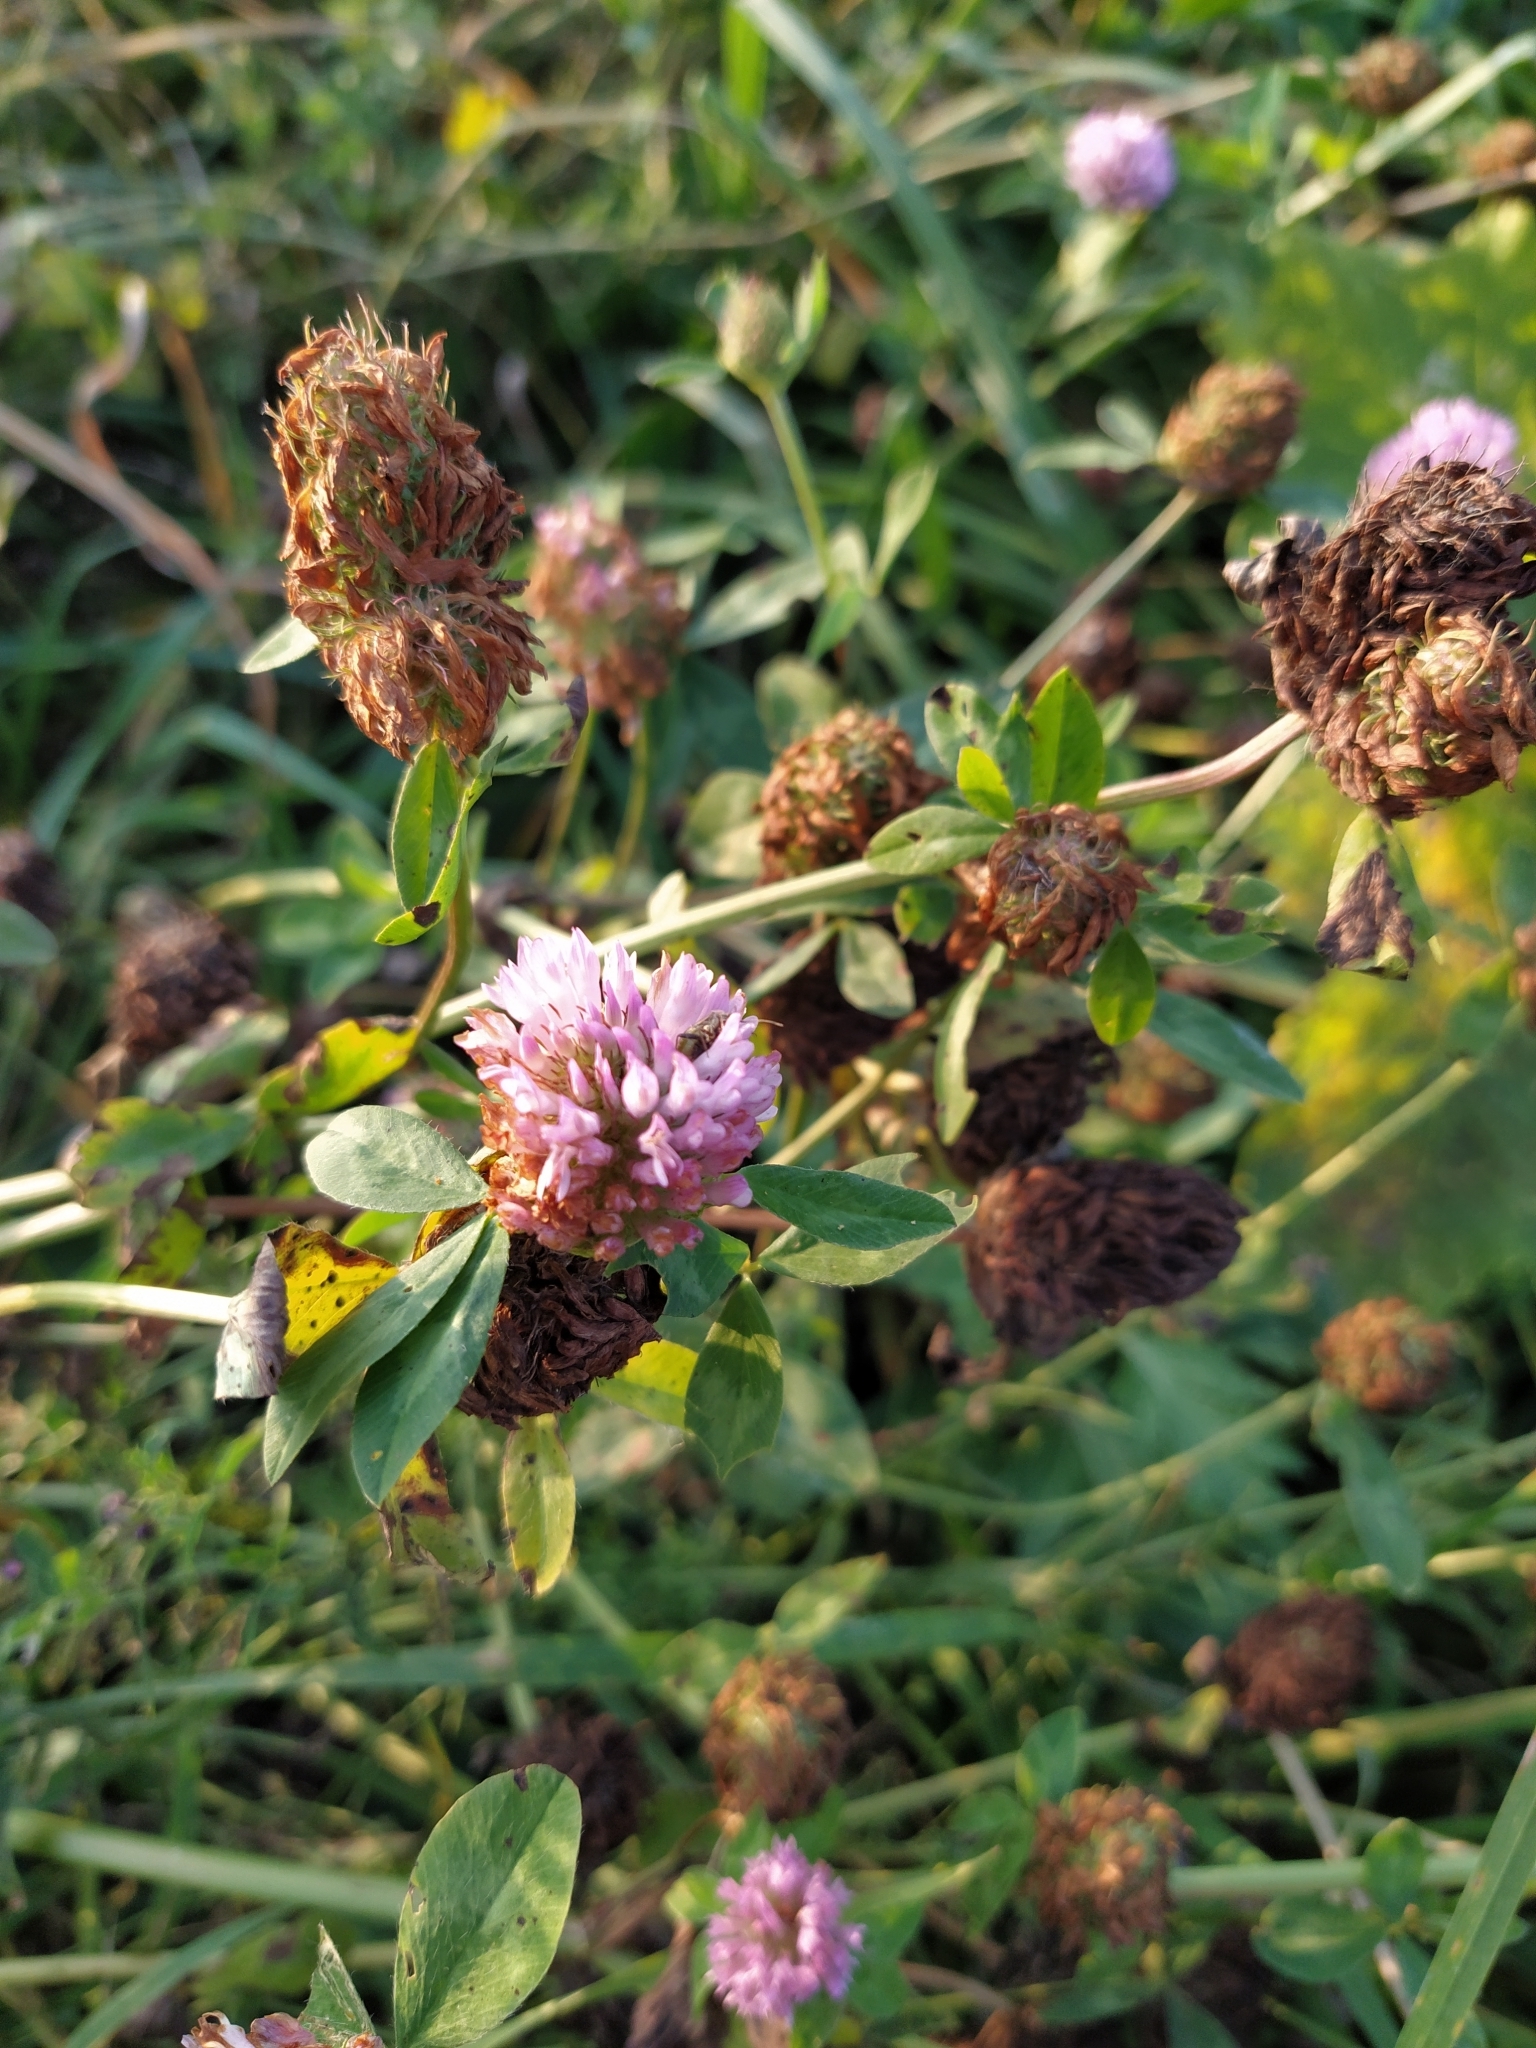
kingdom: Plantae
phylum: Tracheophyta
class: Magnoliopsida
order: Fabales
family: Fabaceae
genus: Trifolium
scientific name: Trifolium pratense
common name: Red clover
